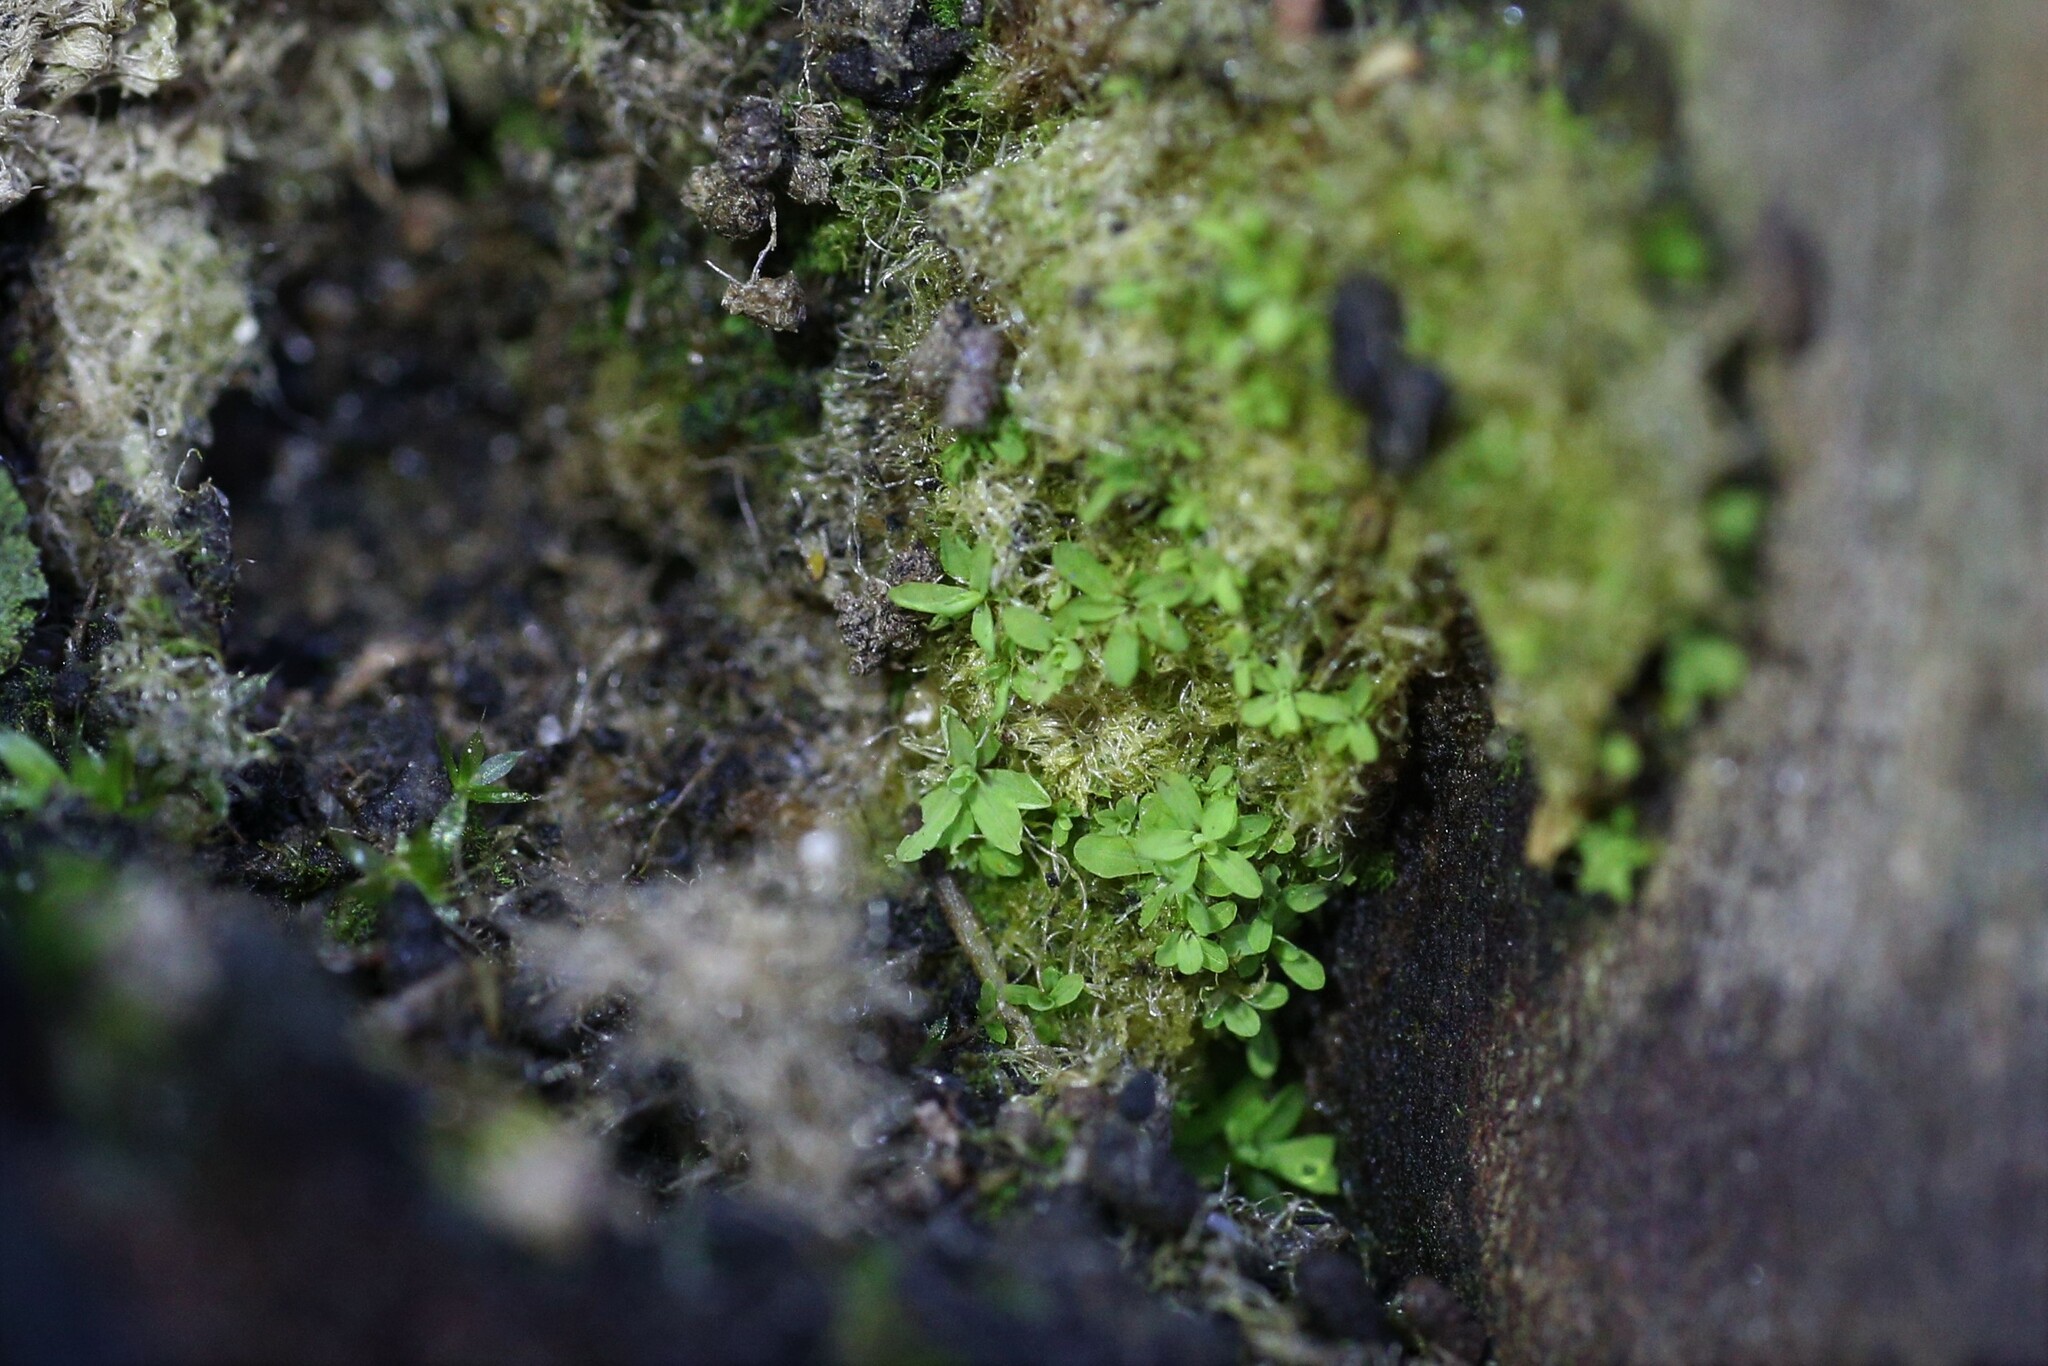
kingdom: Plantae
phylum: Bryophyta
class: Bryopsida
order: Pottiales
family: Pottiaceae
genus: Calymperastrum
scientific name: Calymperastrum latifolium
